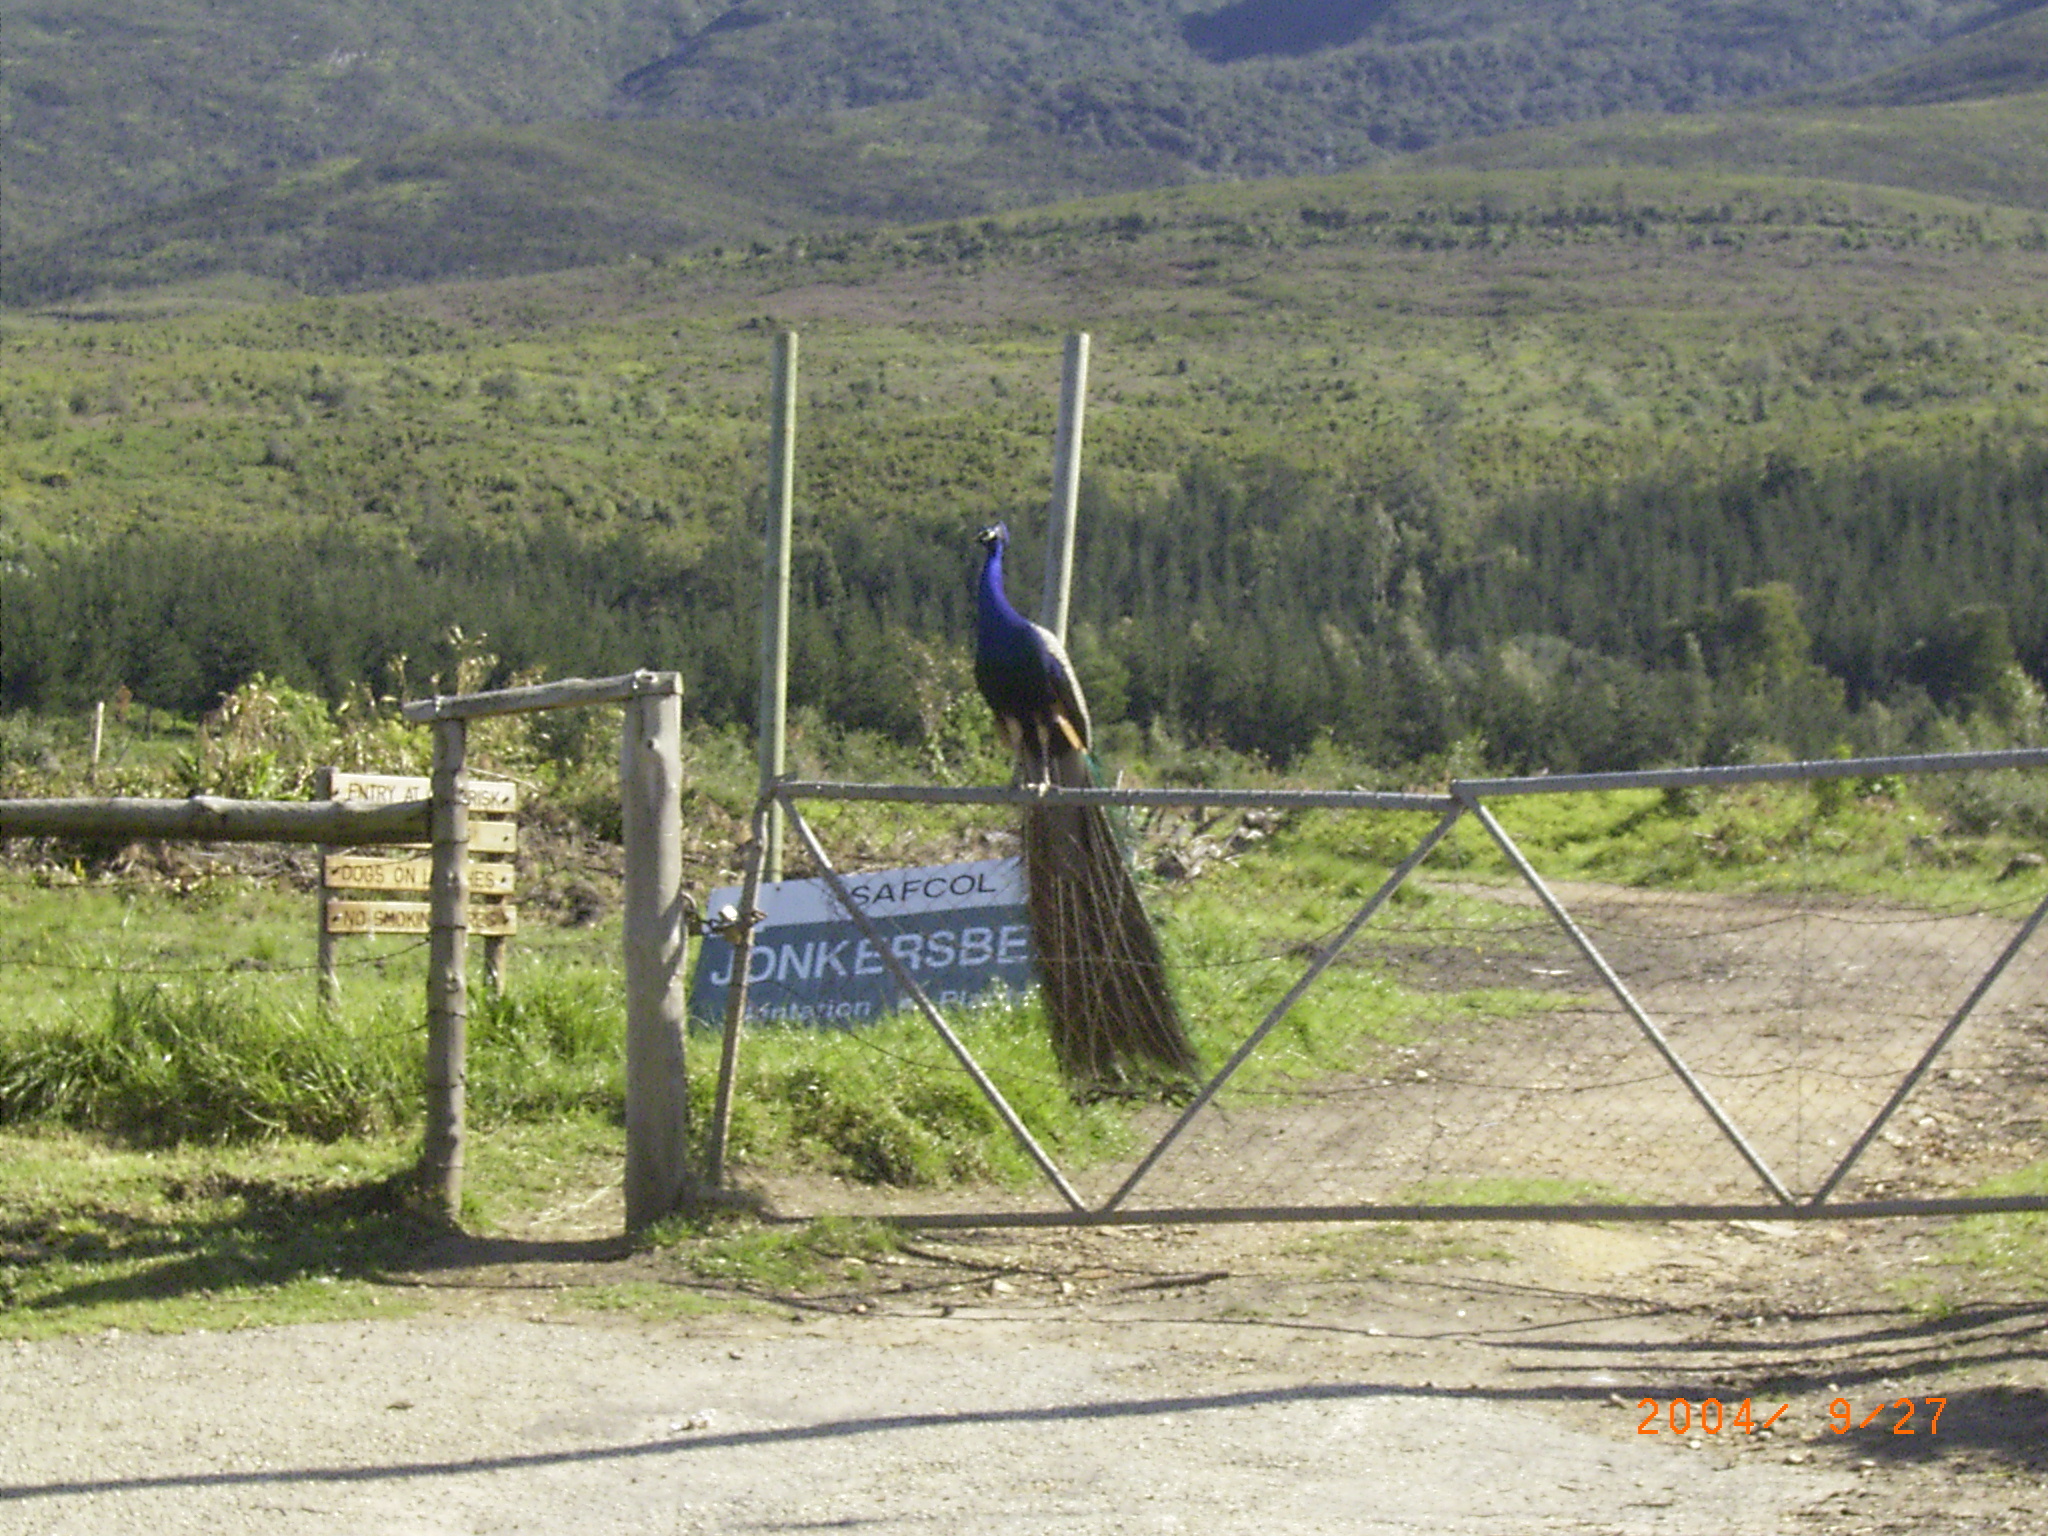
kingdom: Animalia
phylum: Chordata
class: Aves
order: Galliformes
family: Phasianidae
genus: Pavo
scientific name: Pavo cristatus
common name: Indian peafowl
